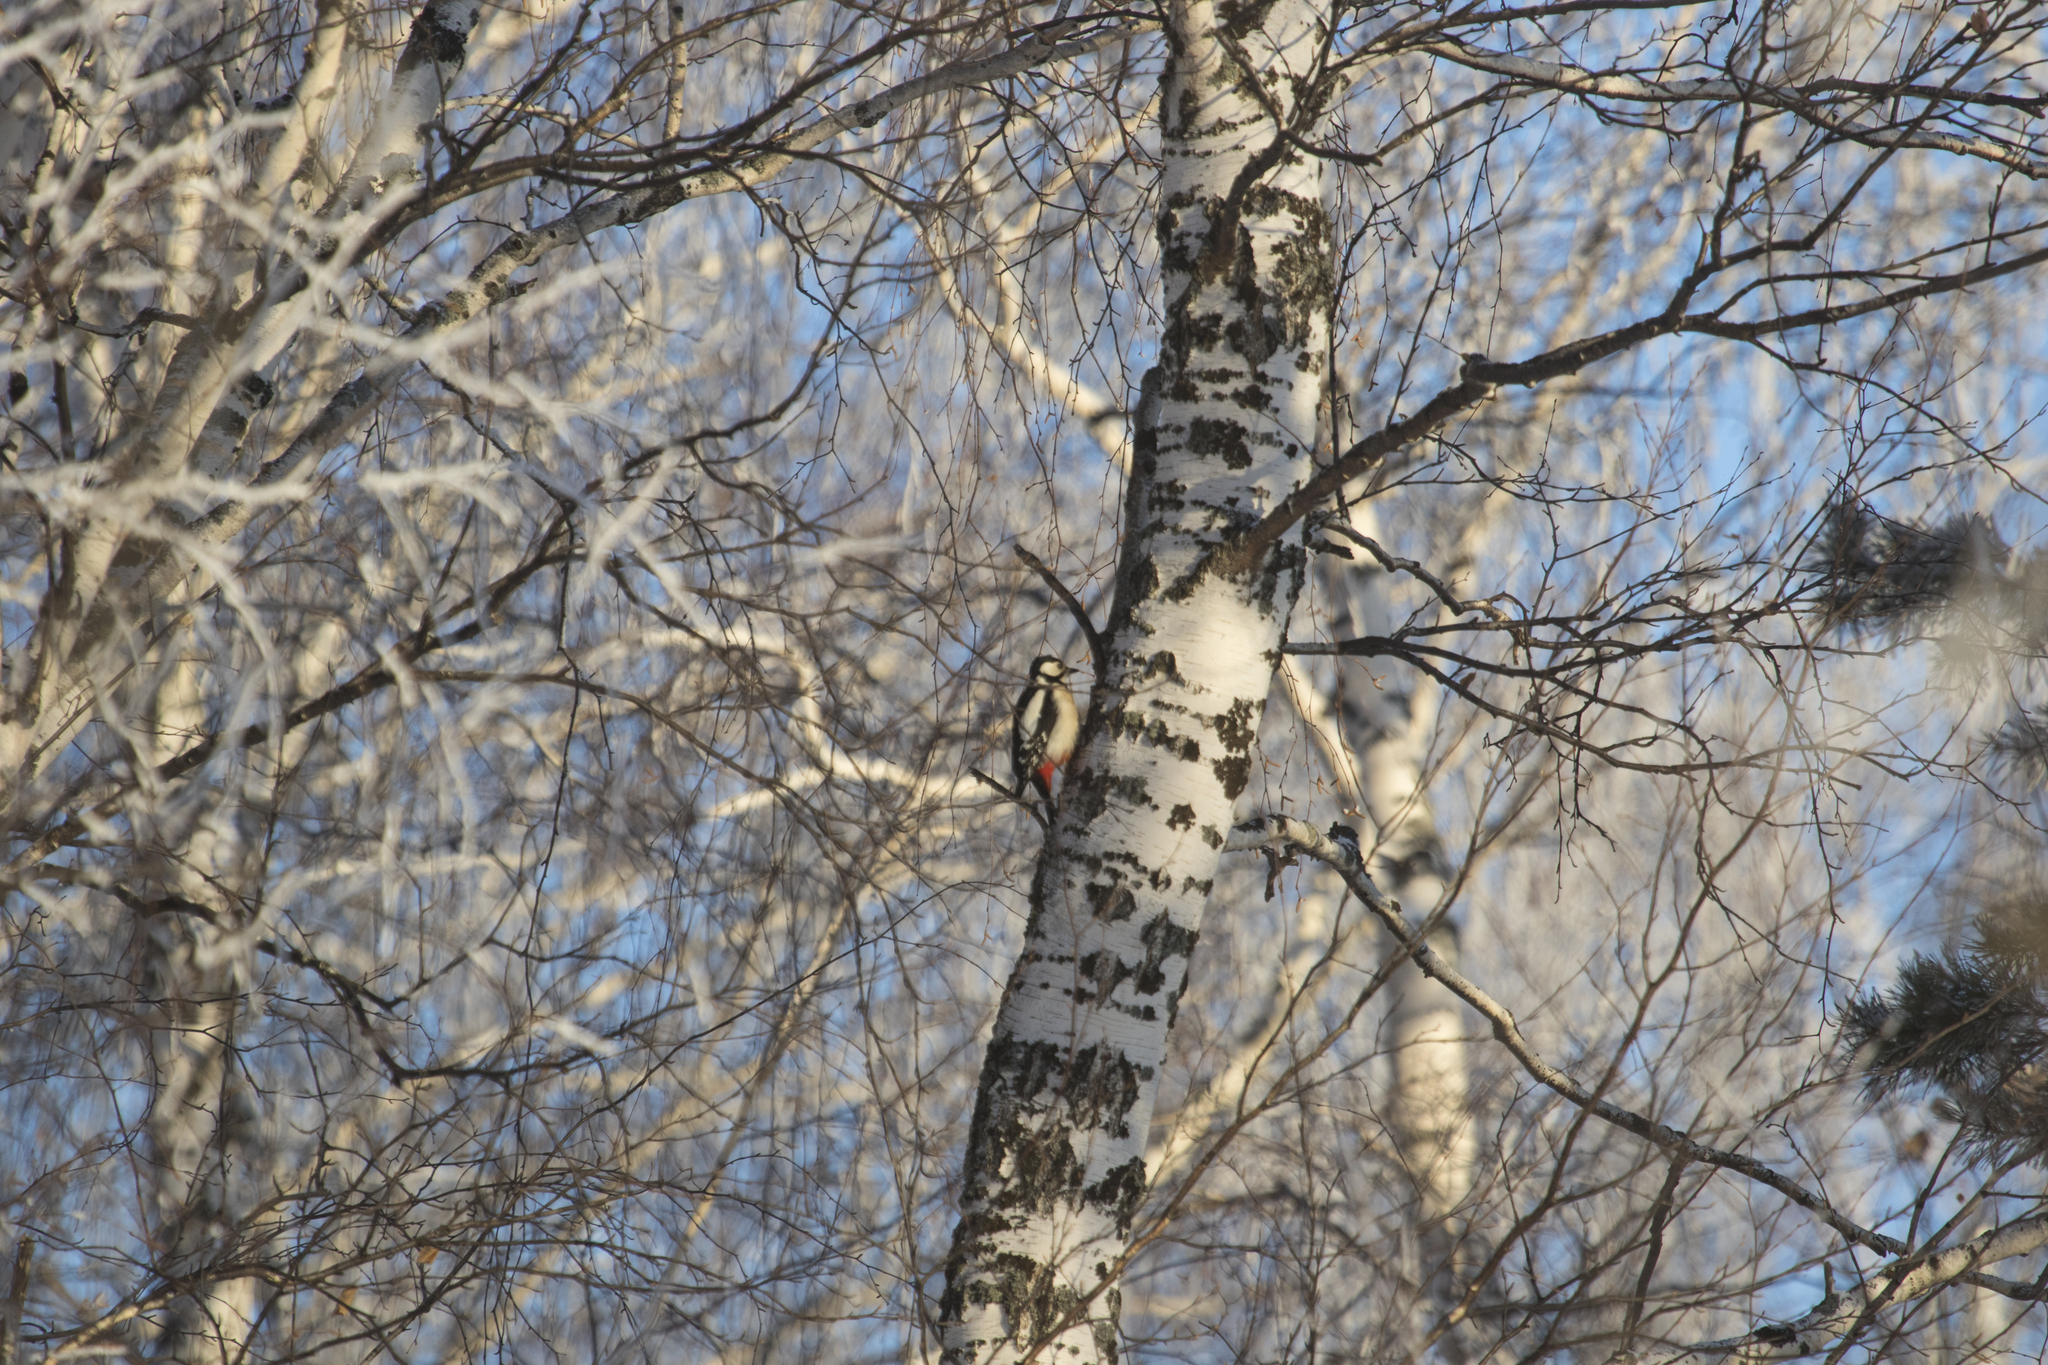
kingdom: Animalia
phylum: Chordata
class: Aves
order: Piciformes
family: Picidae
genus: Dendrocopos
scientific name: Dendrocopos major
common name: Great spotted woodpecker
